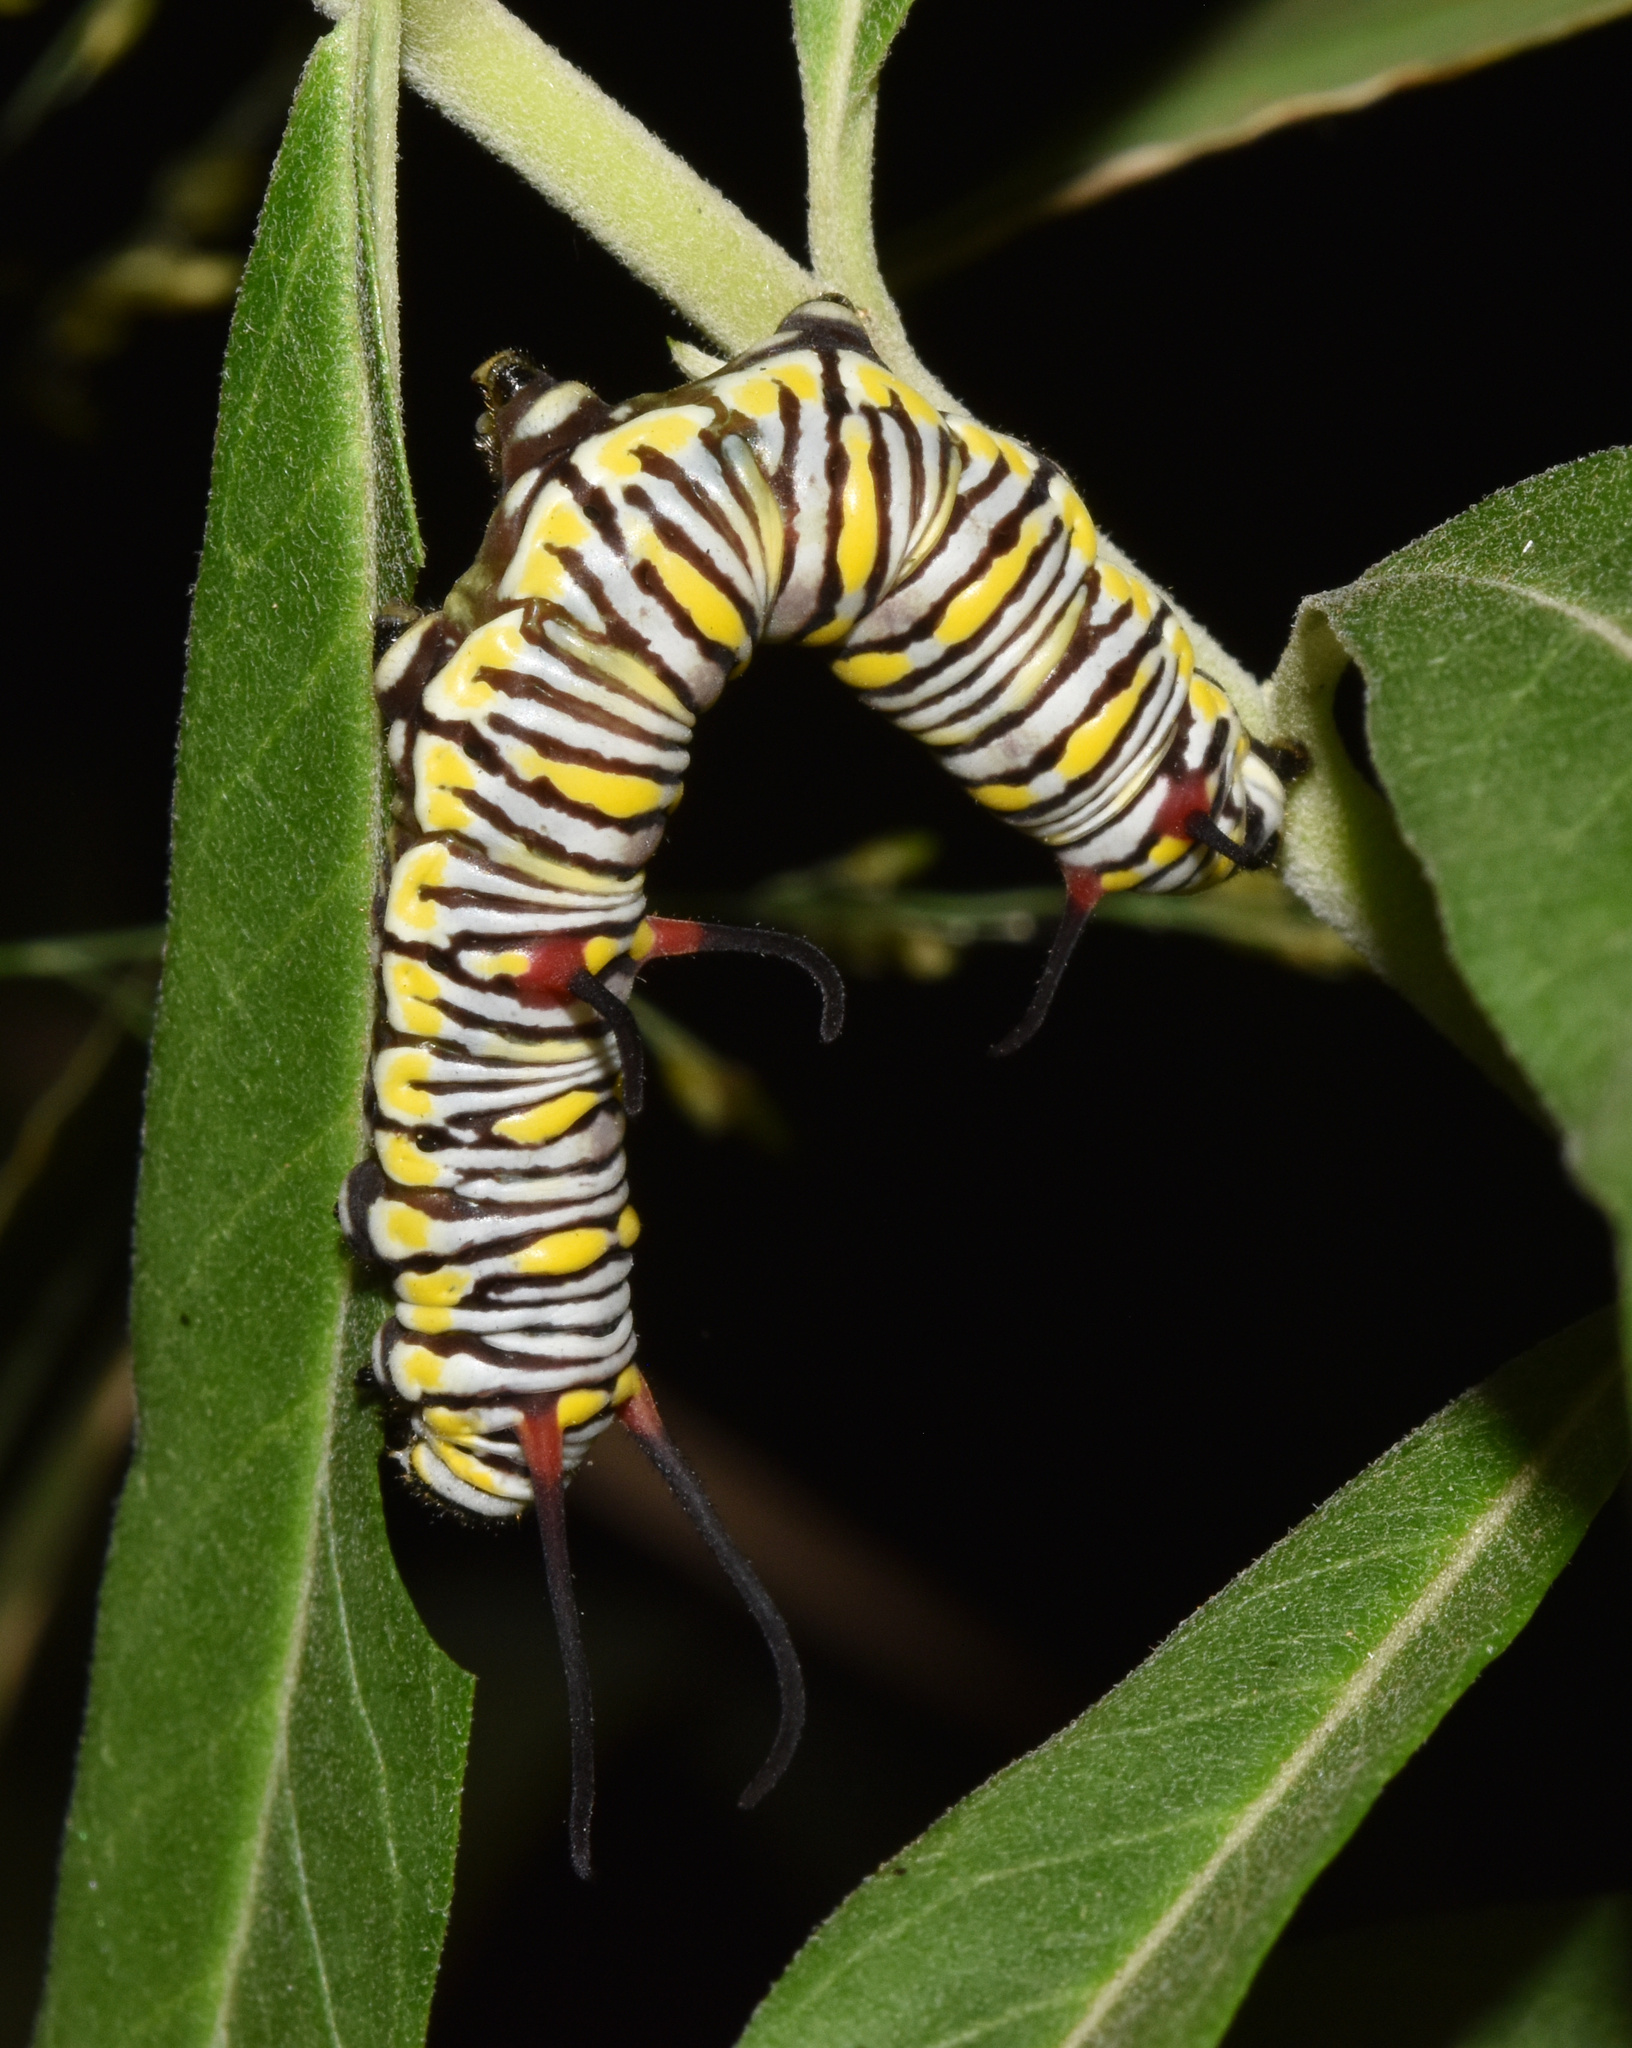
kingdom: Animalia
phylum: Arthropoda
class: Insecta
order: Lepidoptera
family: Nymphalidae
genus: Danaus
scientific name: Danaus chrysippus
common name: Plain tiger
